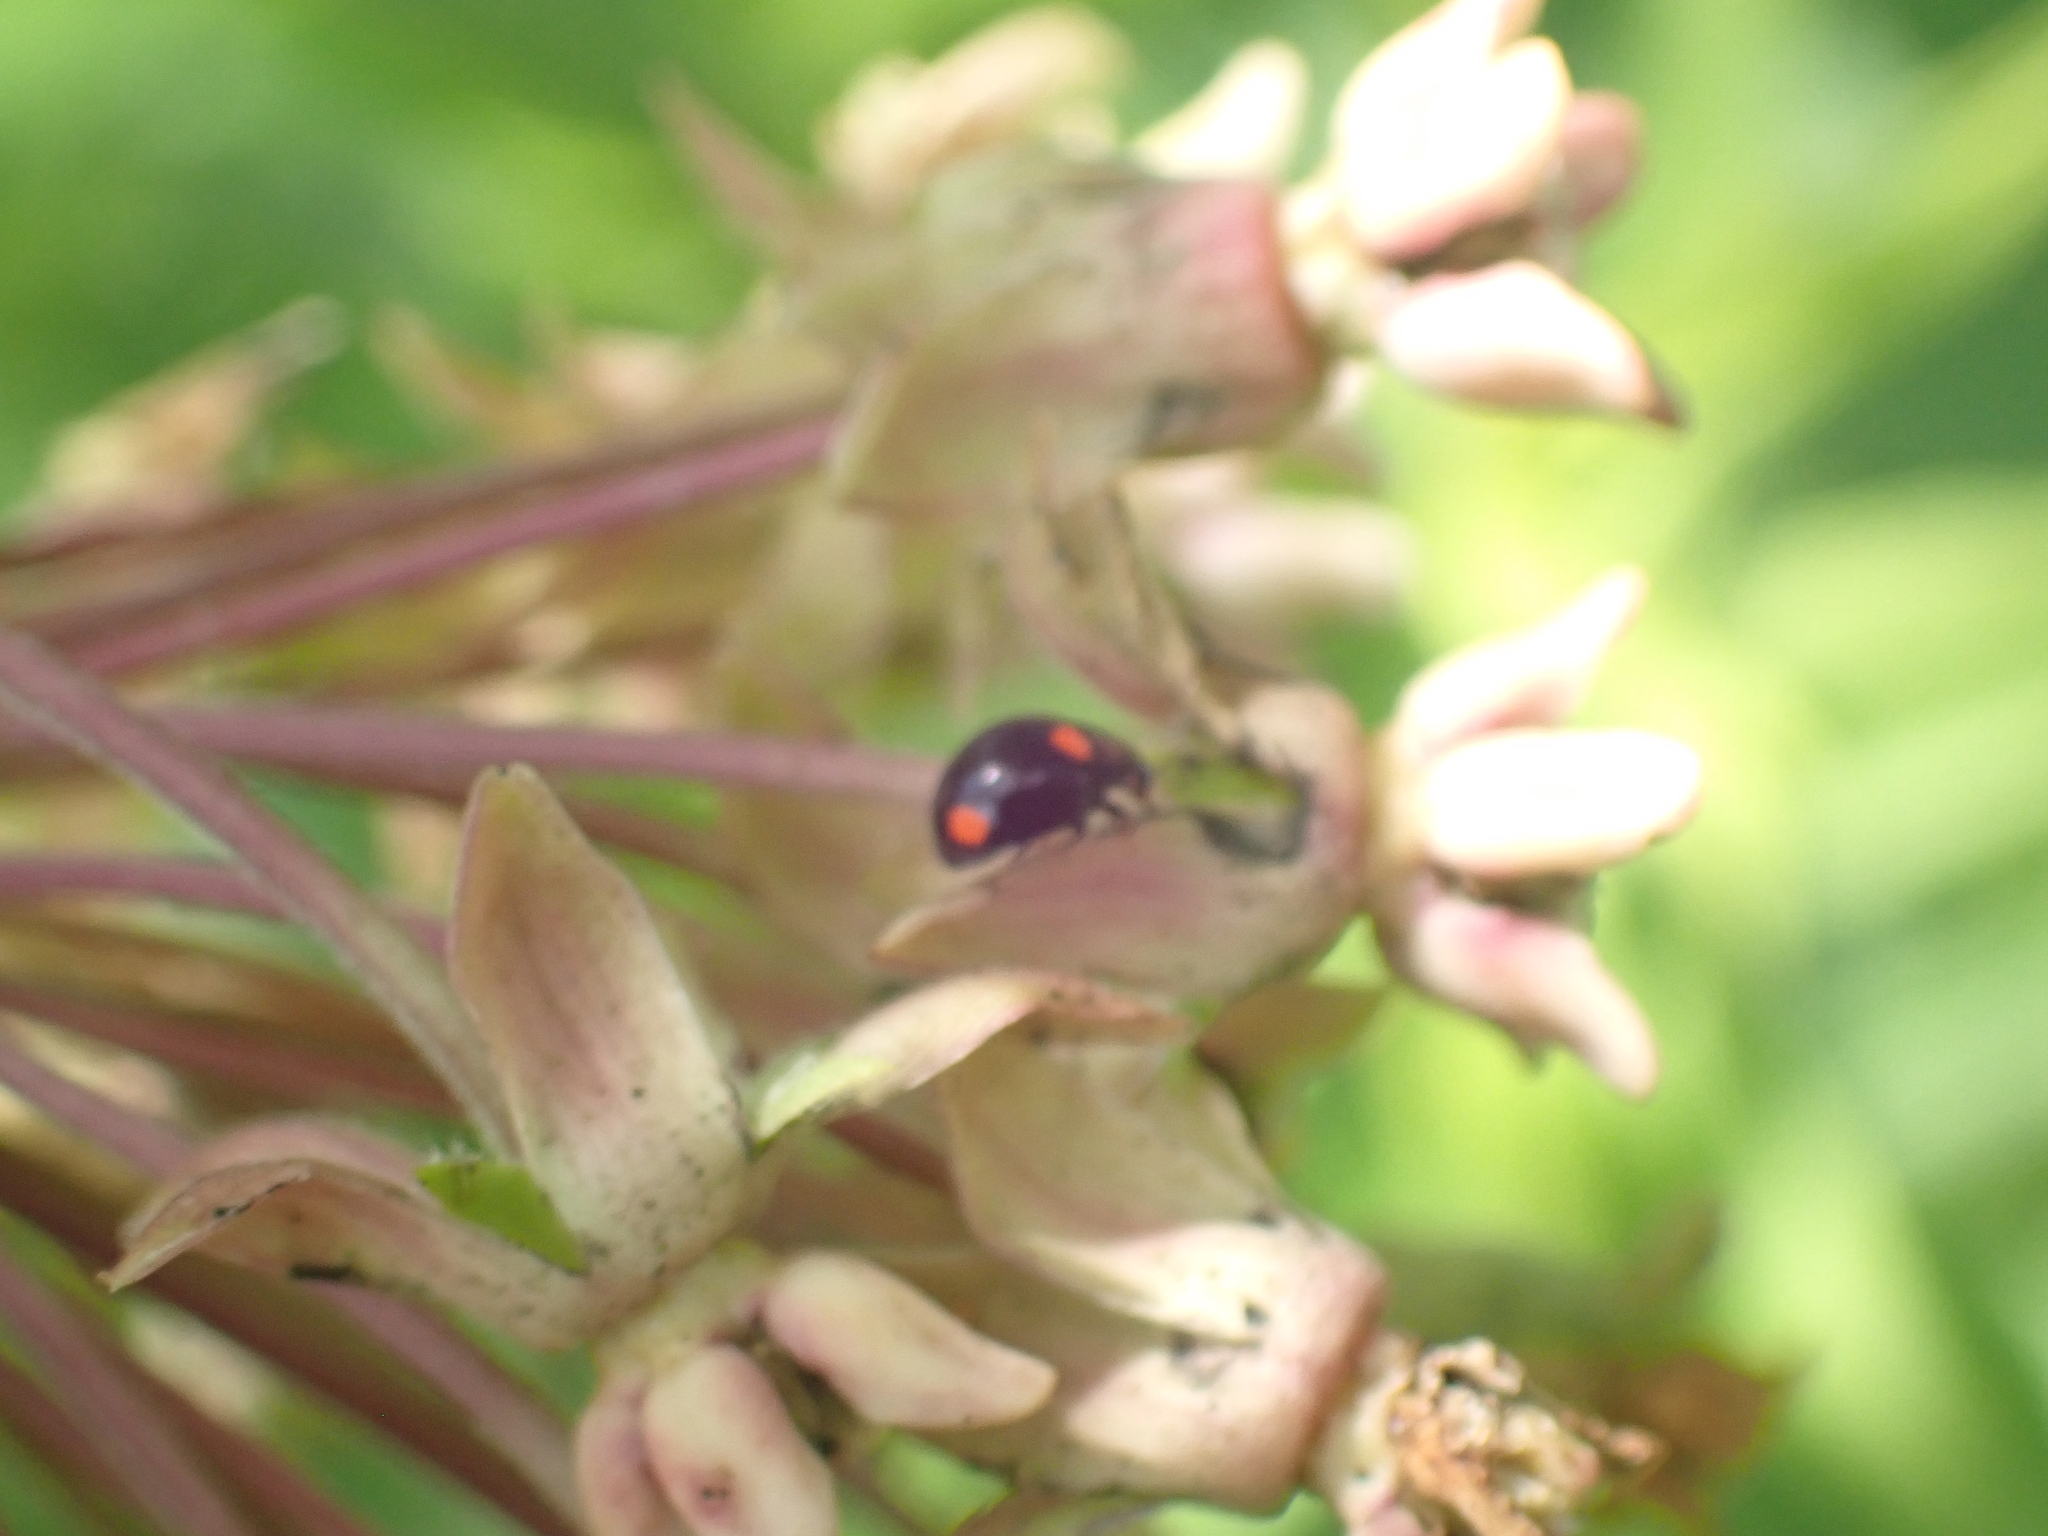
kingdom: Animalia
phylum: Arthropoda
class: Insecta
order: Coleoptera
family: Coccinellidae
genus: Brachiacantha
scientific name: Brachiacantha quadripunctata
